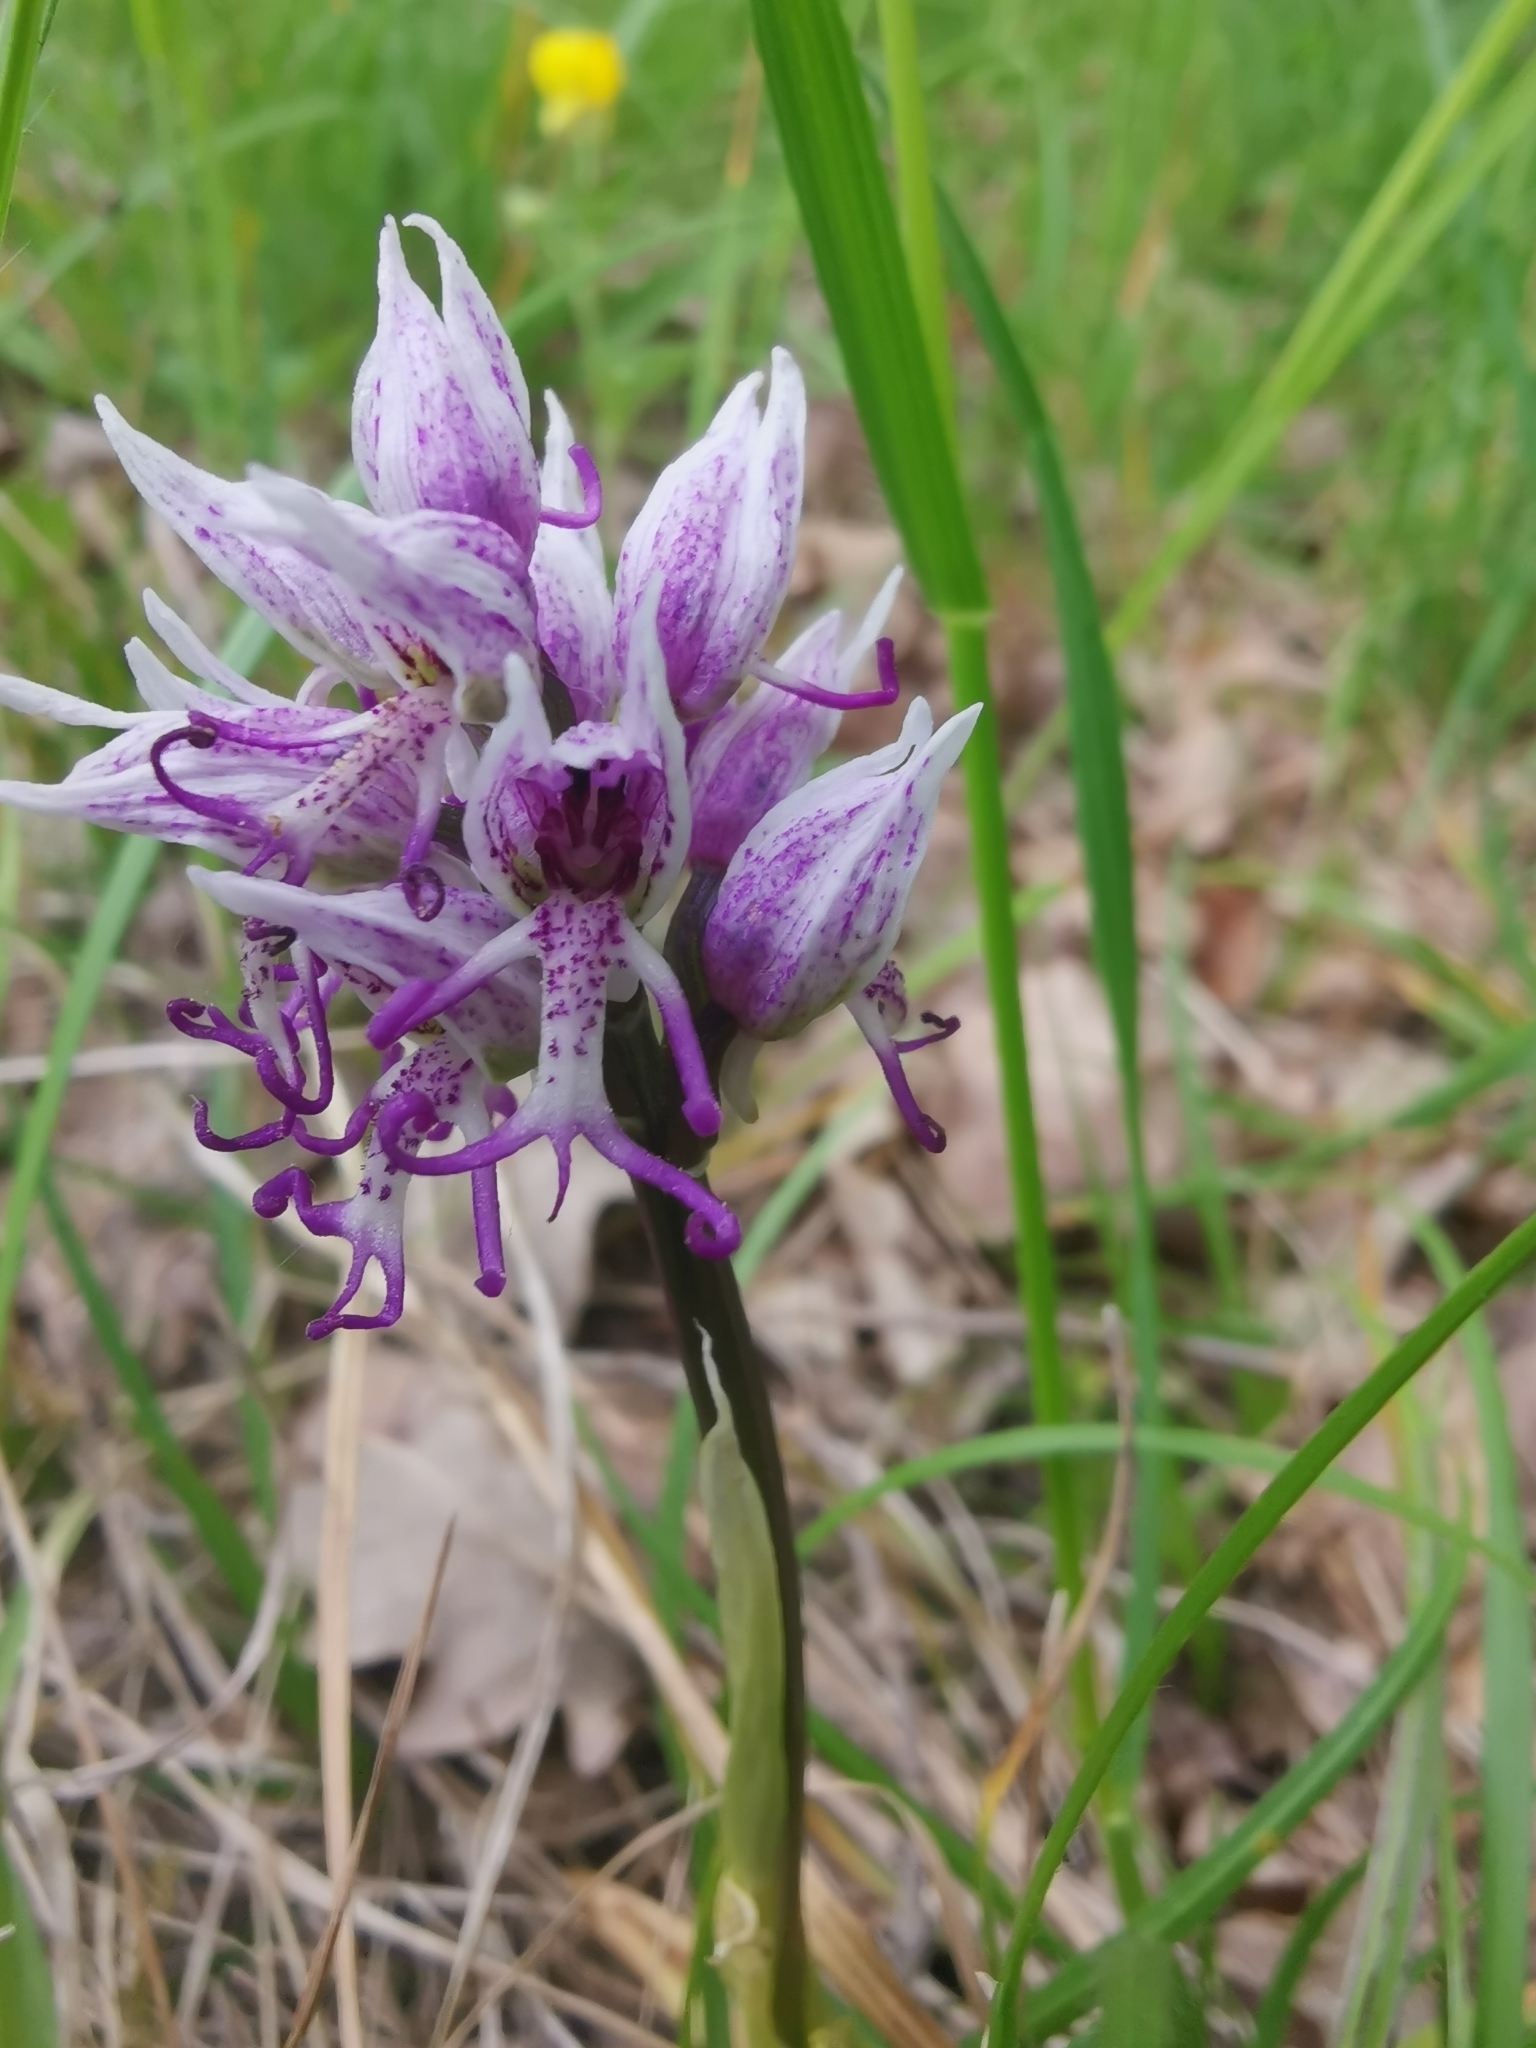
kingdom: Plantae
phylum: Tracheophyta
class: Liliopsida
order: Asparagales
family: Orchidaceae
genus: Orchis
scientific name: Orchis simia
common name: Monkey orchid
